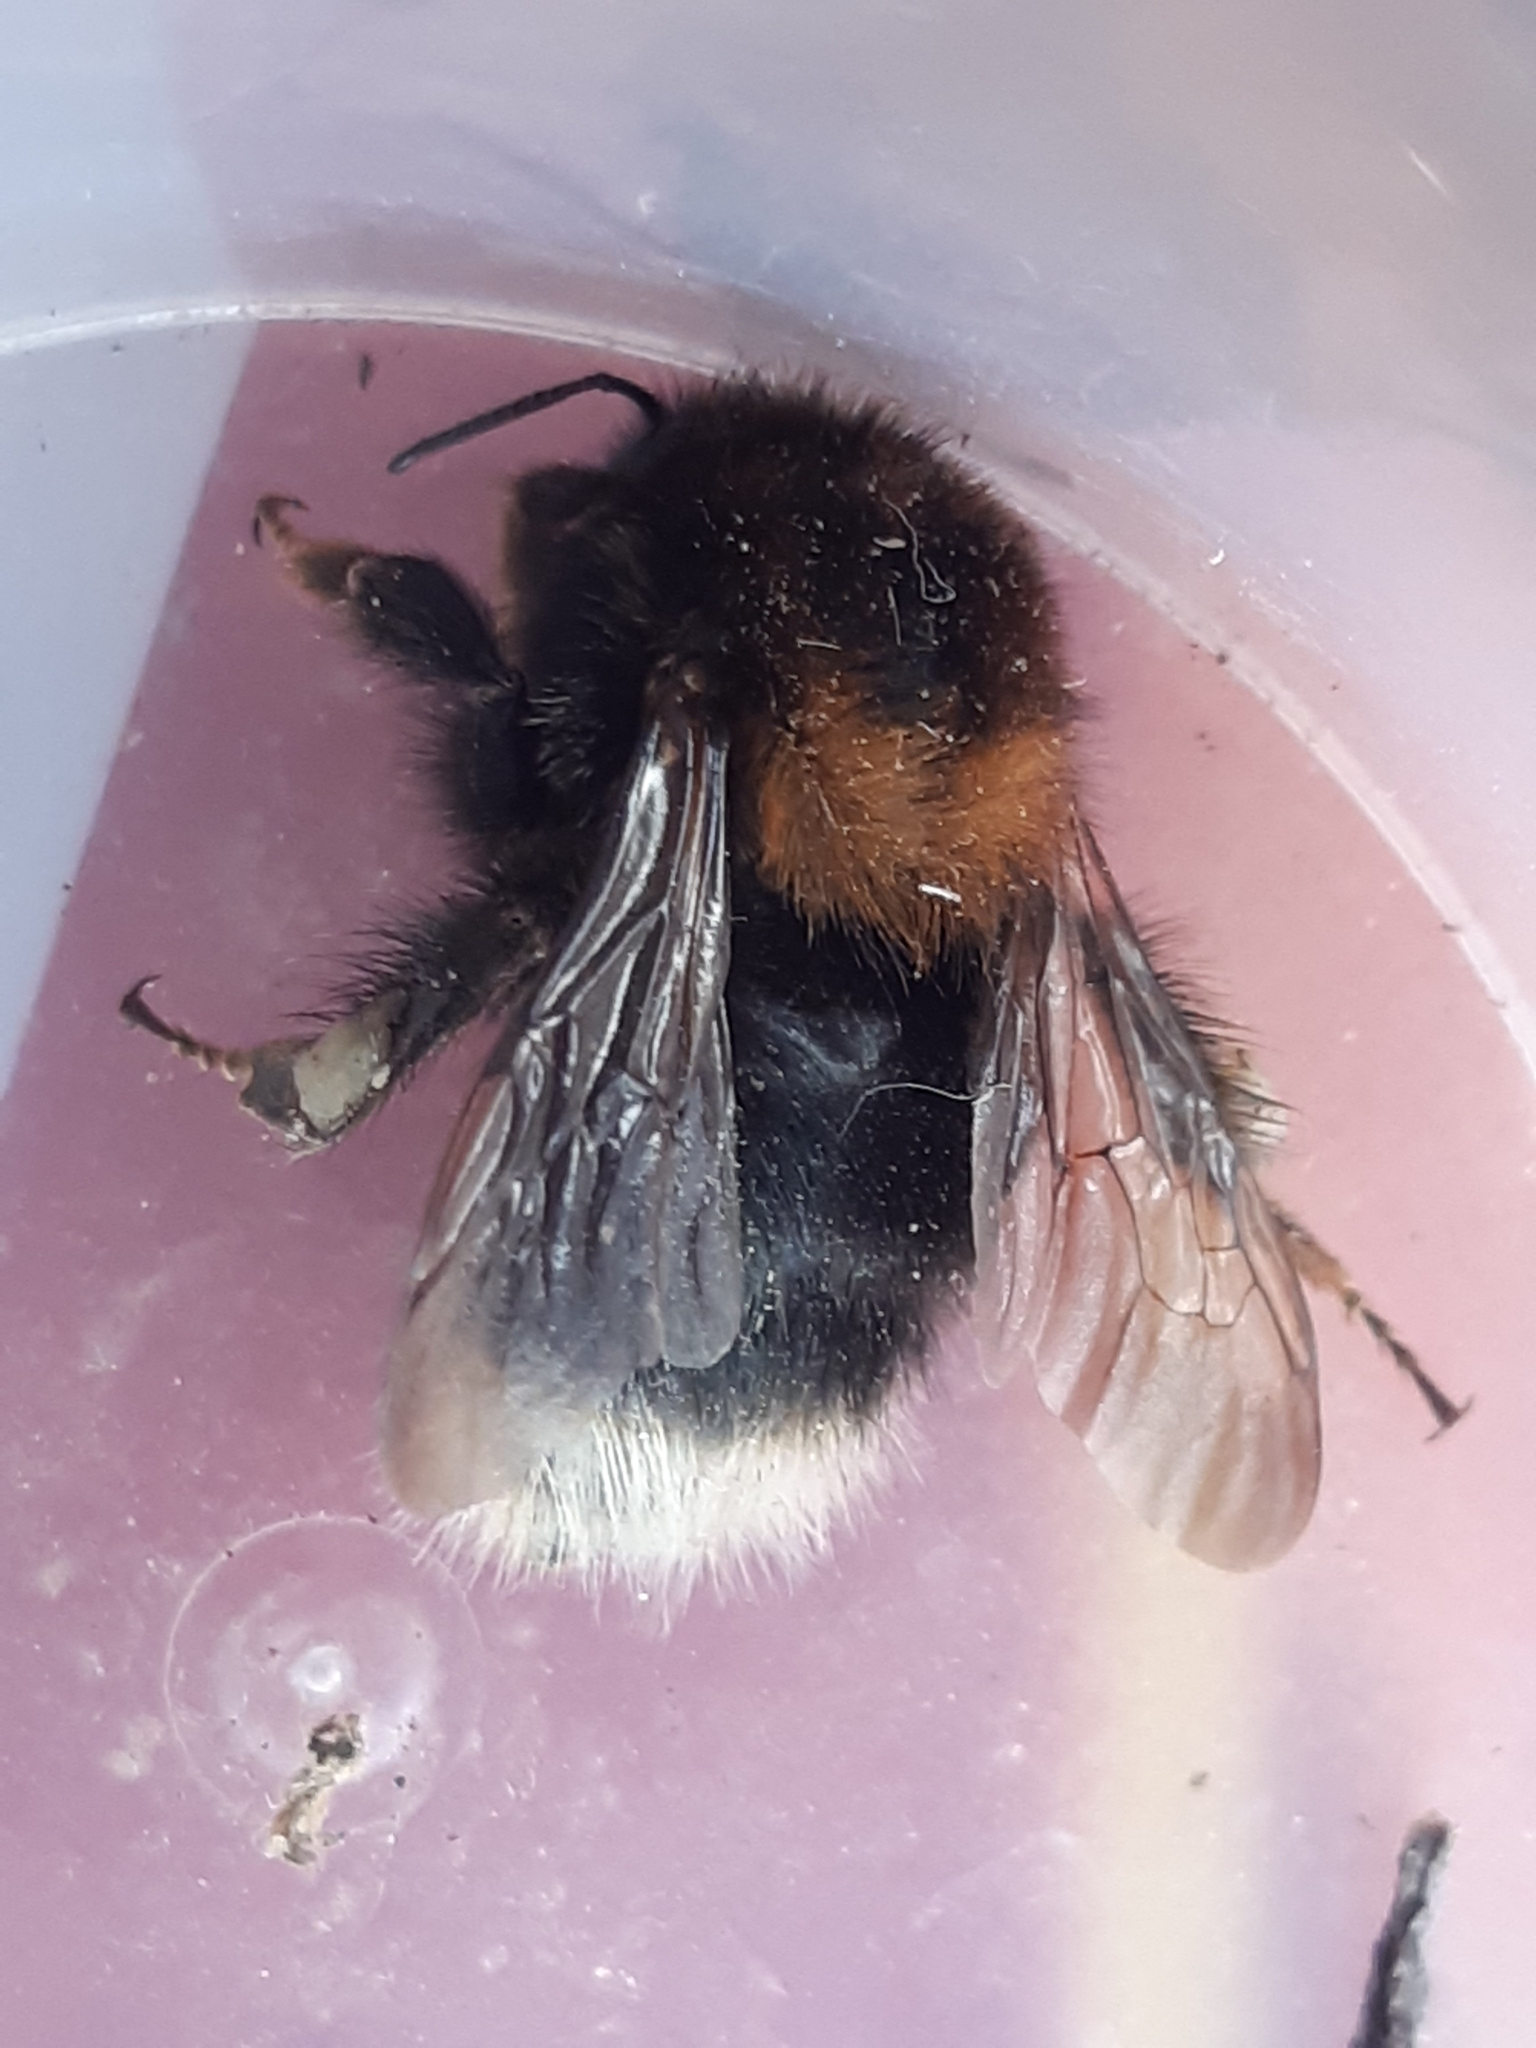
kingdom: Animalia
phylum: Arthropoda
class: Insecta
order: Hymenoptera
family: Apidae
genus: Bombus
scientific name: Bombus hypnorum
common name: New garden bumblebee
